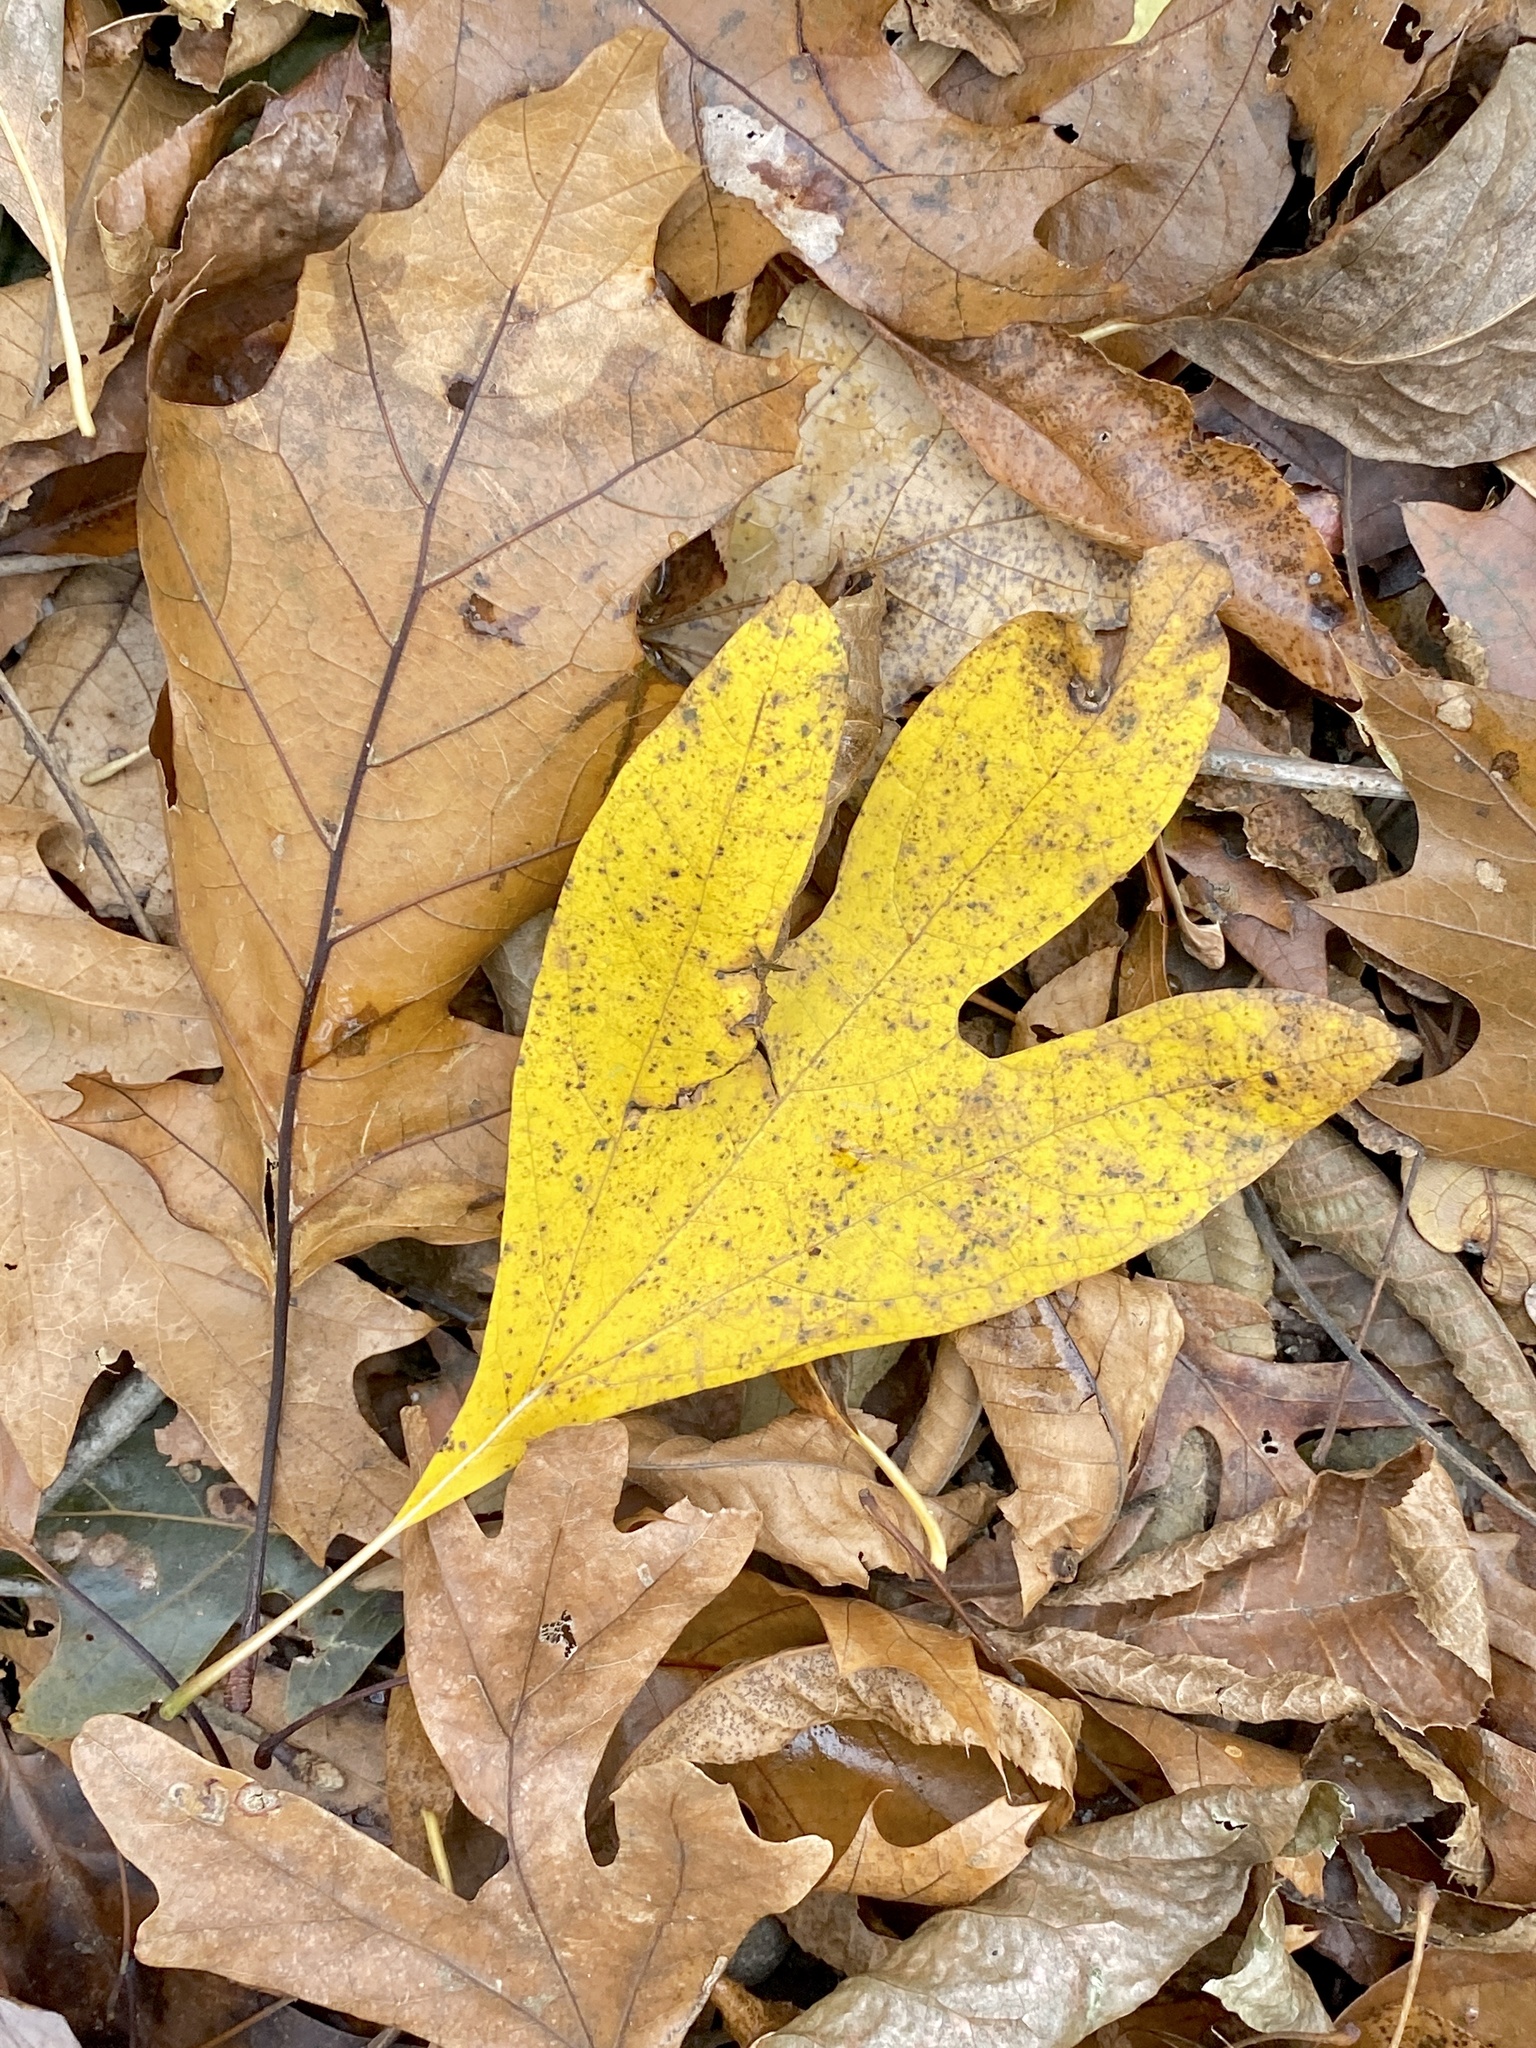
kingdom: Plantae
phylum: Tracheophyta
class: Magnoliopsida
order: Laurales
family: Lauraceae
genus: Sassafras
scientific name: Sassafras albidum
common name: Sassafras
